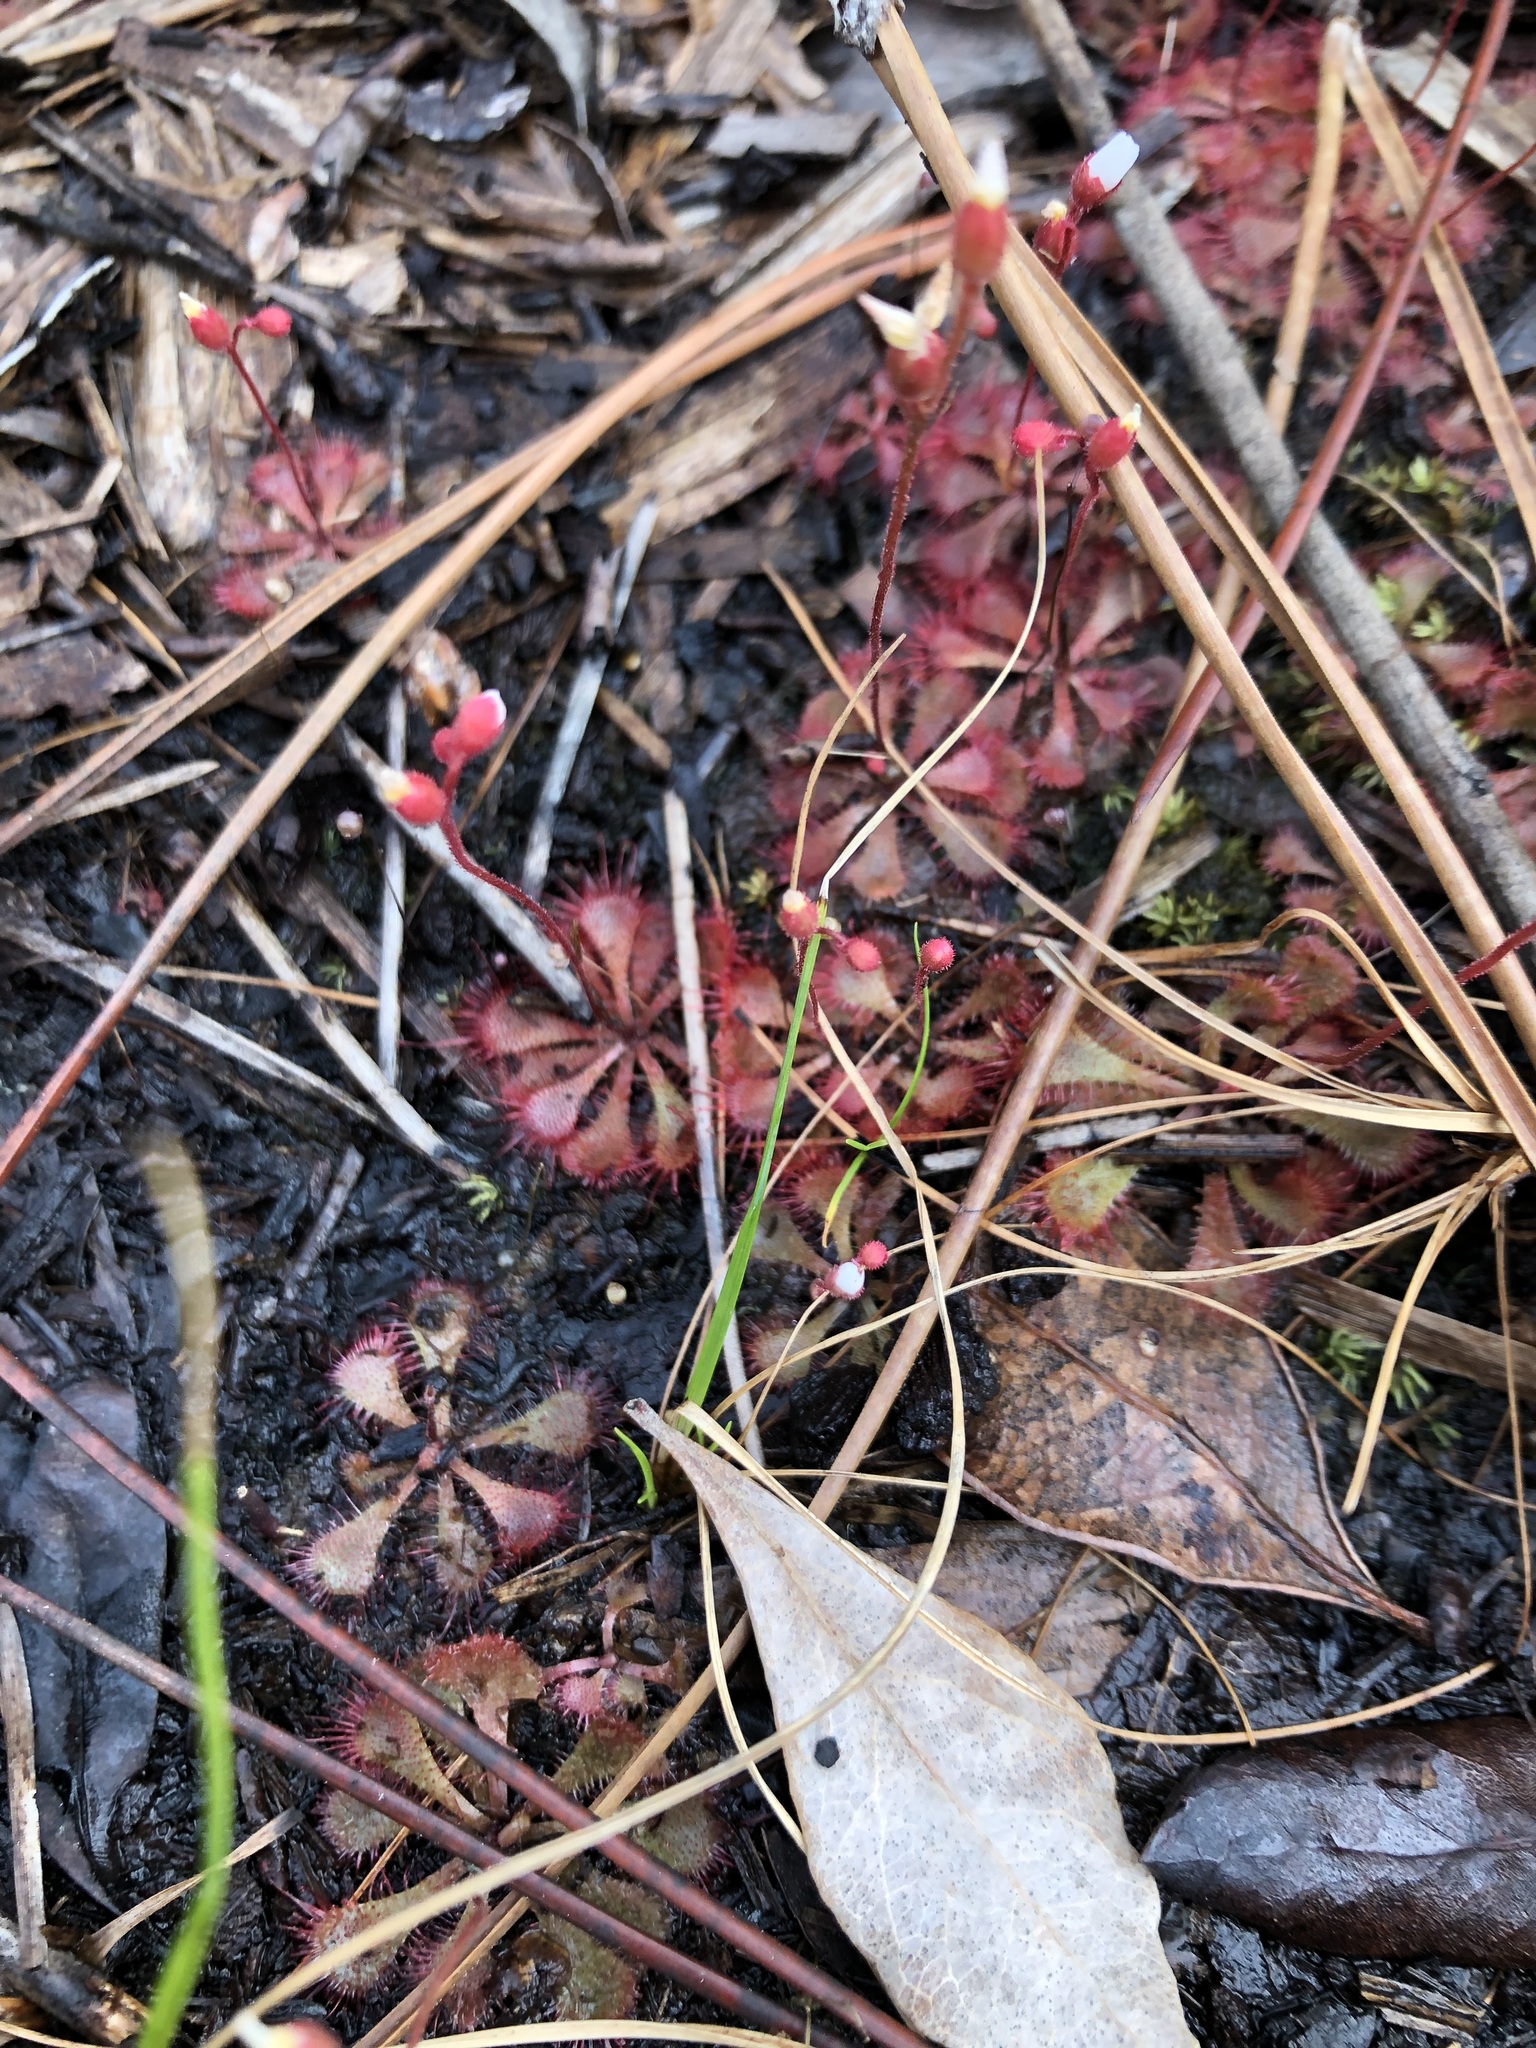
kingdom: Plantae
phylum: Tracheophyta
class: Magnoliopsida
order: Caryophyllales
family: Droseraceae
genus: Drosera
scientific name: Drosera brevifolia
